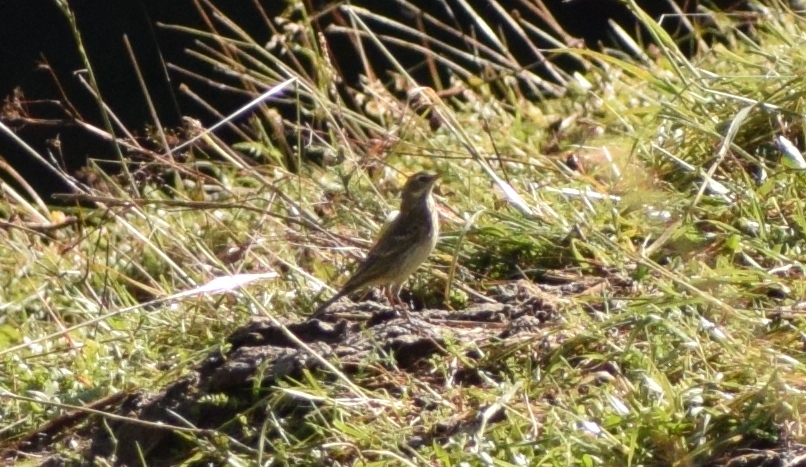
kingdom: Animalia
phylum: Chordata
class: Aves
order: Passeriformes
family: Motacillidae
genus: Anthus
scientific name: Anthus spinoletta
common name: Water pipit
